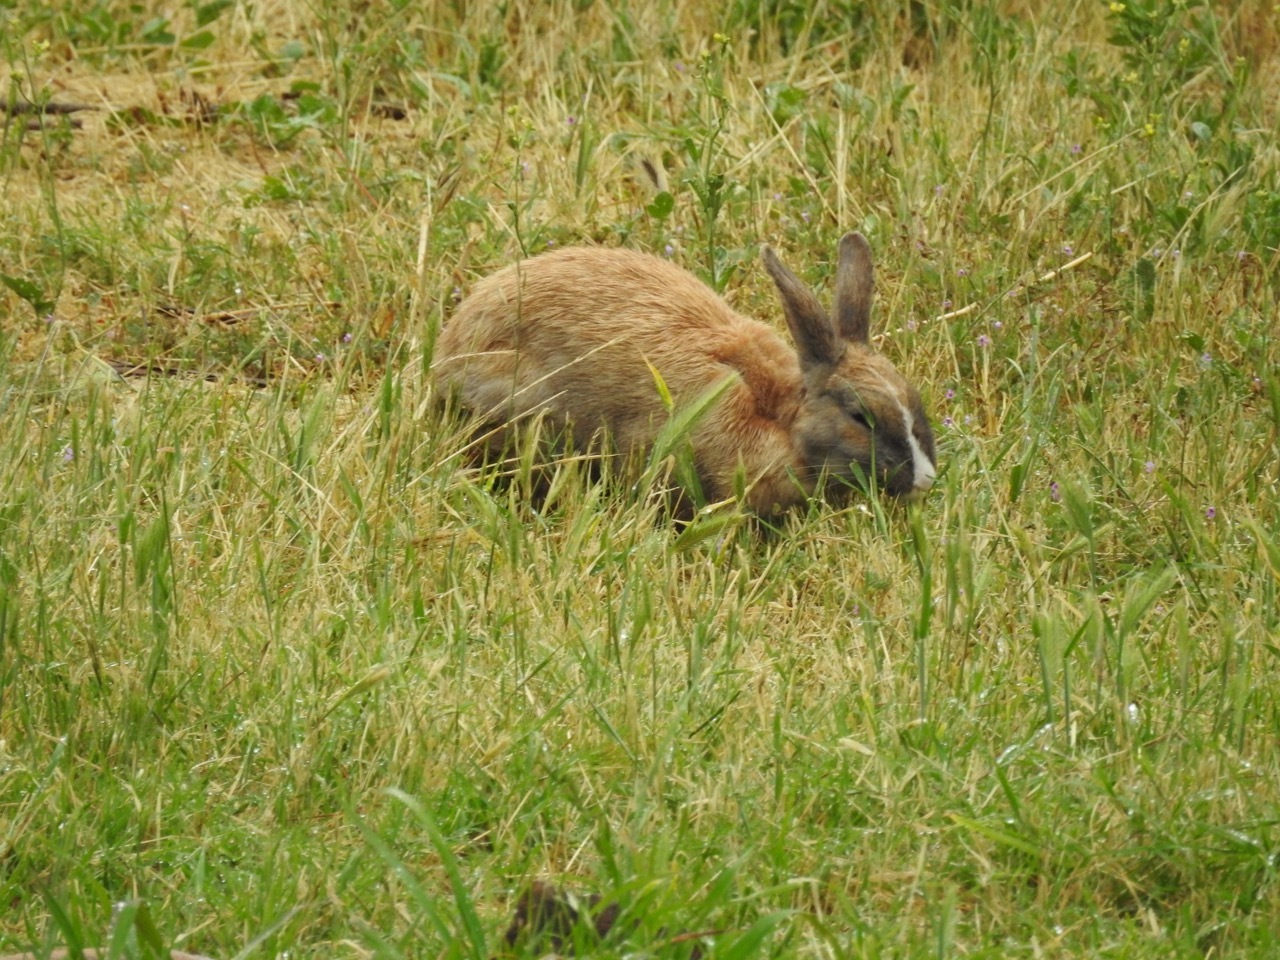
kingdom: Animalia
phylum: Chordata
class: Mammalia
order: Lagomorpha
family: Leporidae
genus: Oryctolagus
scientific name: Oryctolagus cuniculus
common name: European rabbit
